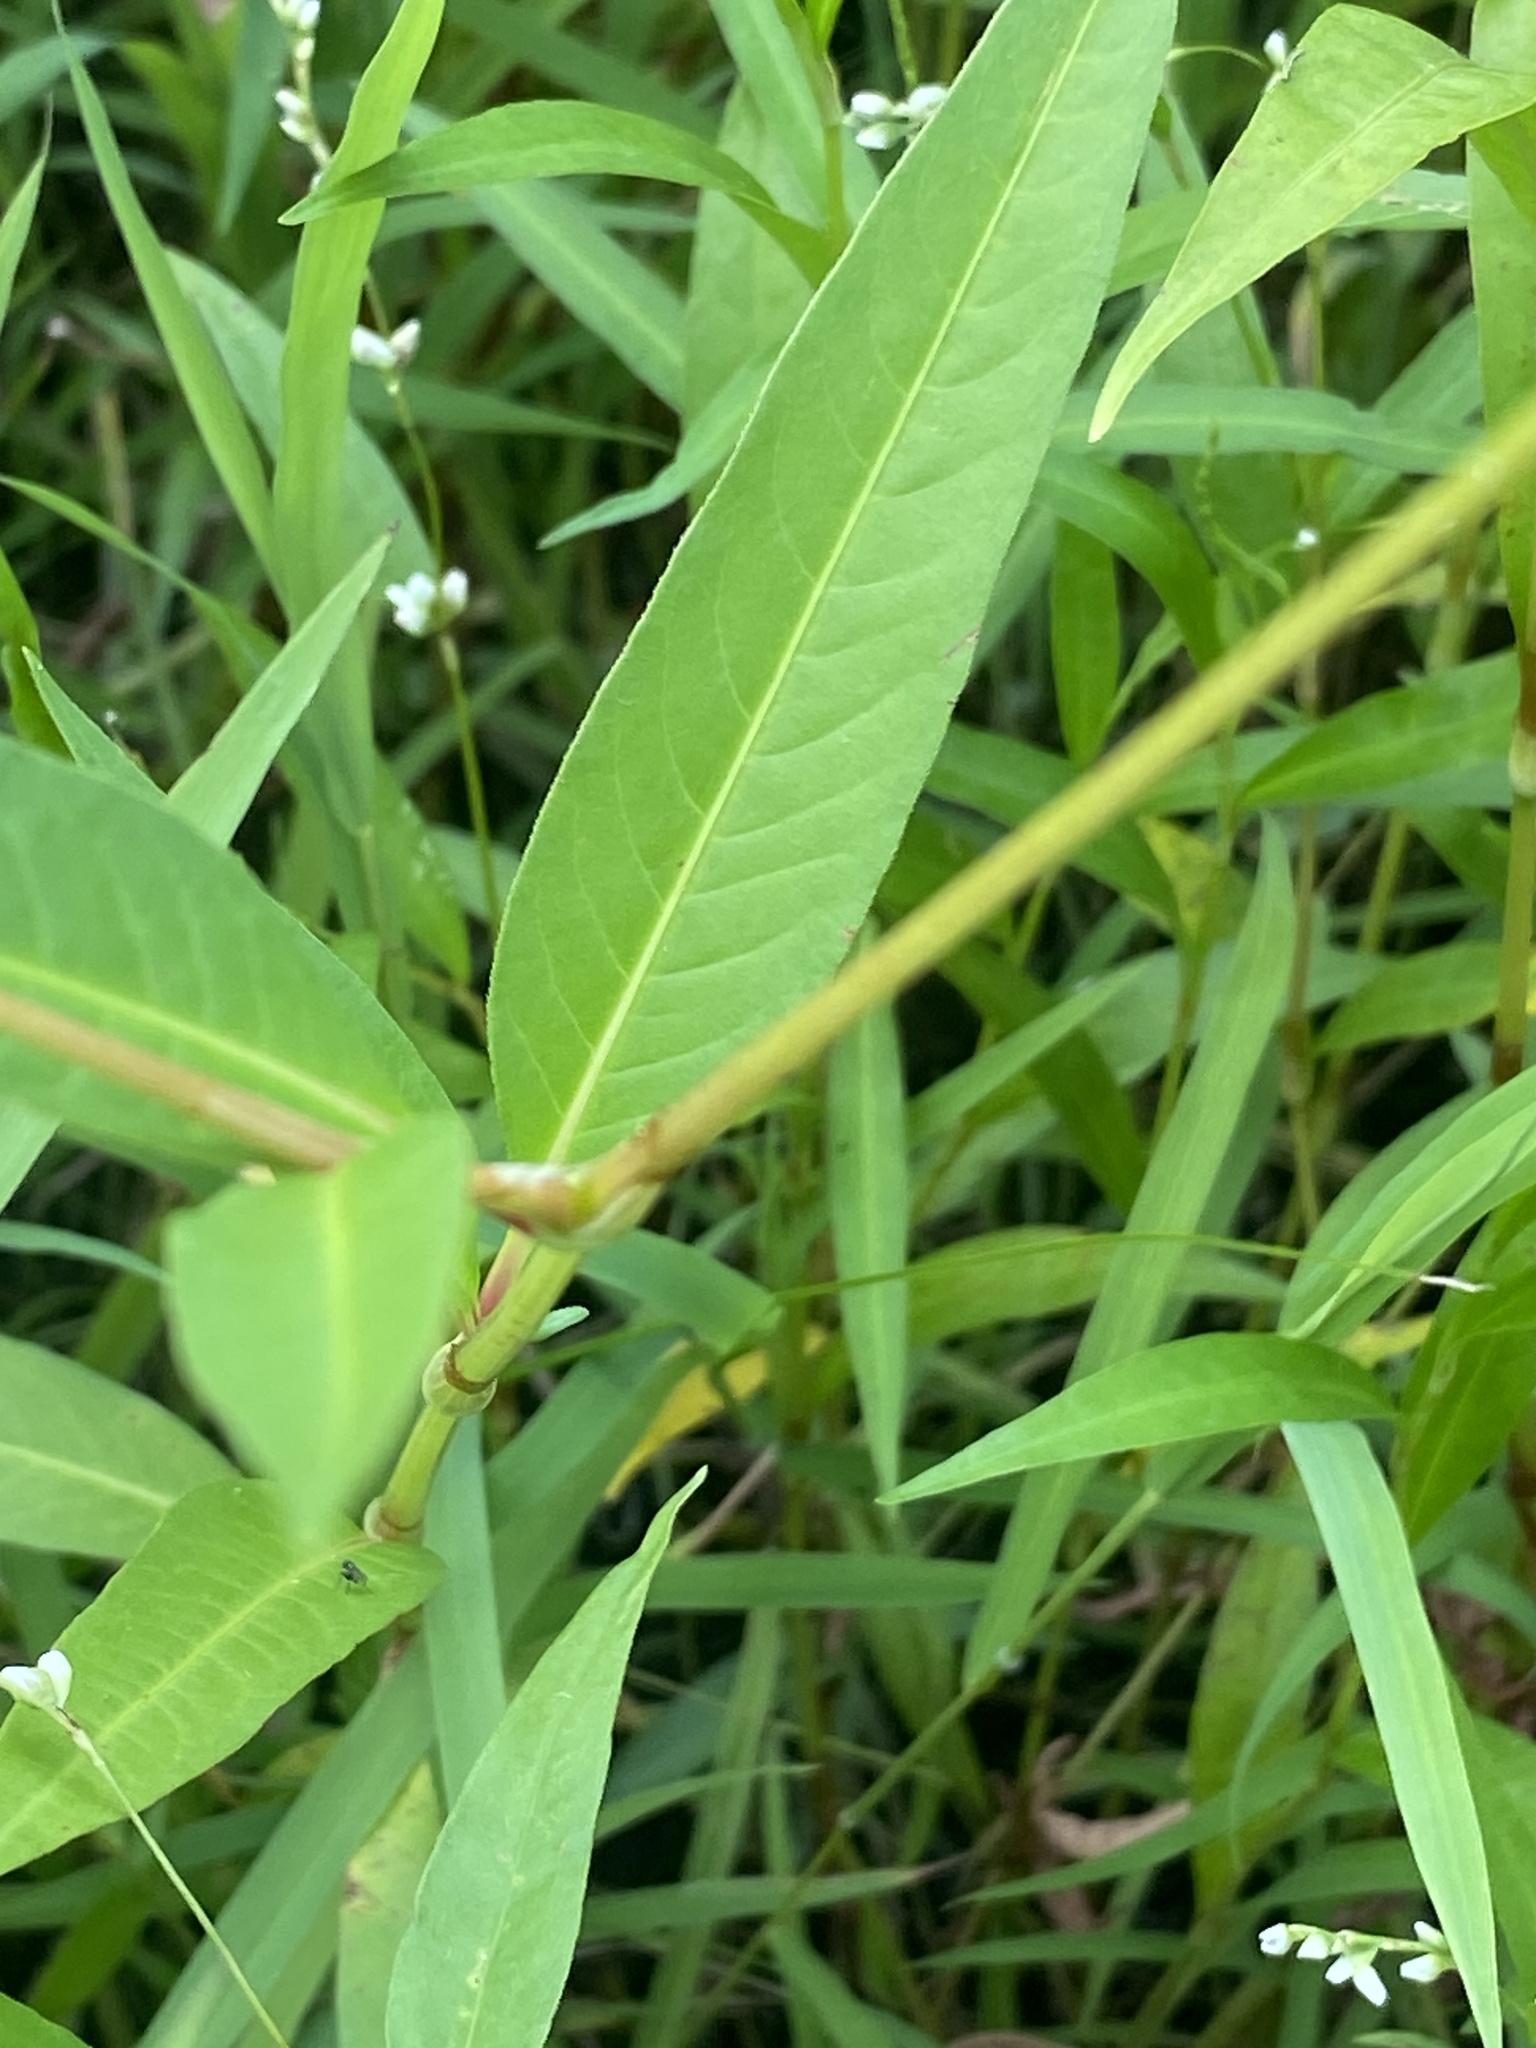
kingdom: Plantae
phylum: Tracheophyta
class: Magnoliopsida
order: Caryophyllales
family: Polygonaceae
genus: Persicaria
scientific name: Persicaria pensylvanica
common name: Pinkweed
